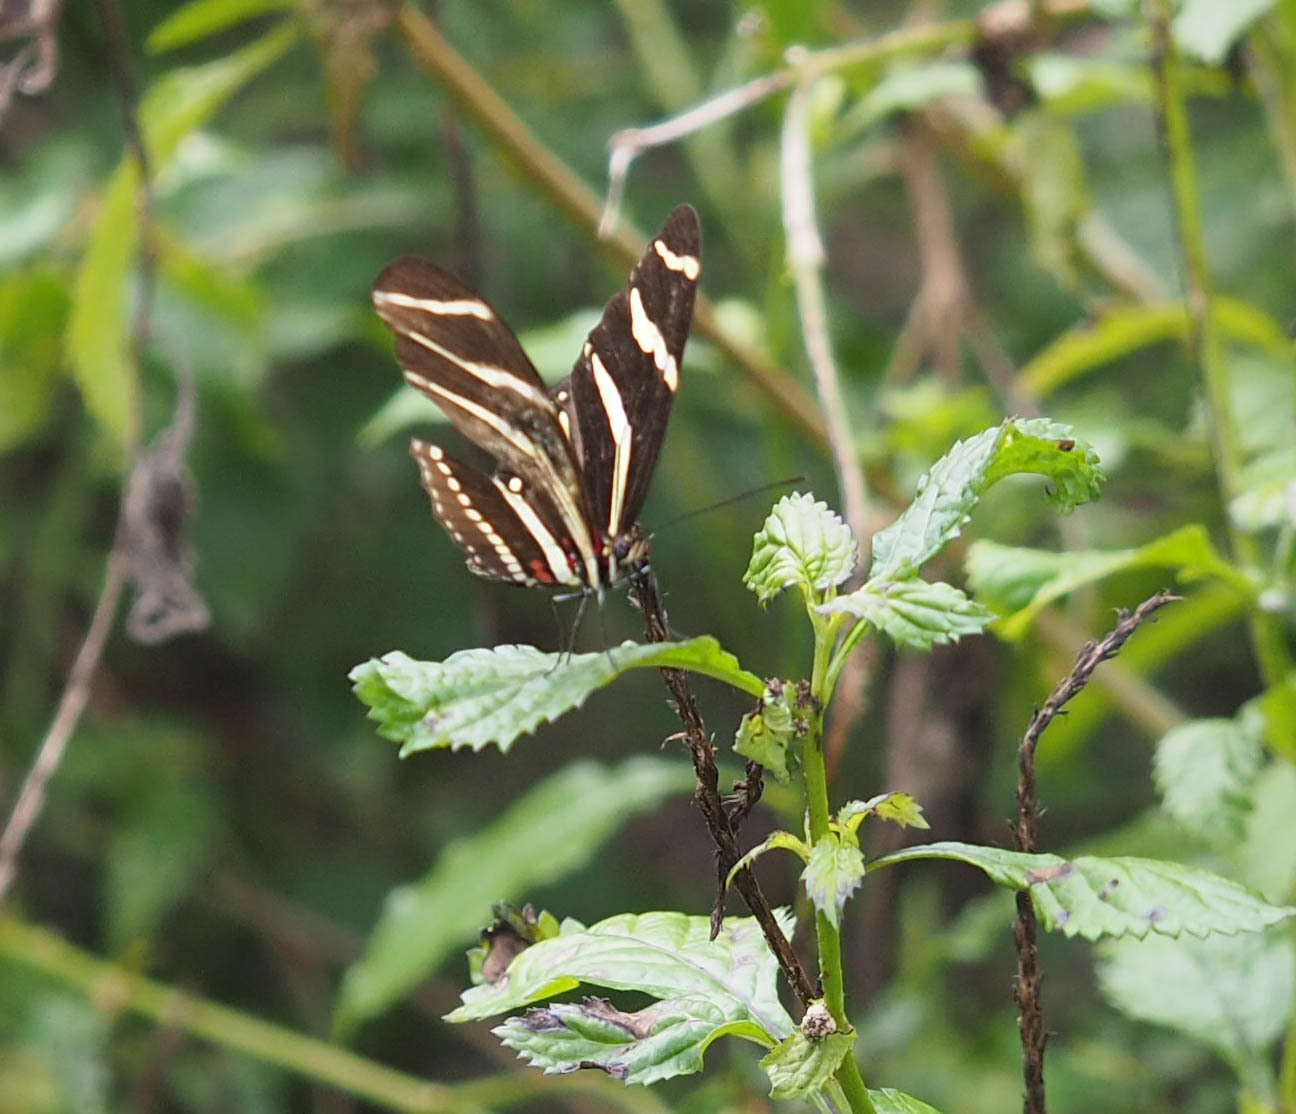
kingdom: Animalia
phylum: Arthropoda
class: Insecta
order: Lepidoptera
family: Nymphalidae
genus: Heliconius
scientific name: Heliconius charithonia
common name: Zebra long wing
